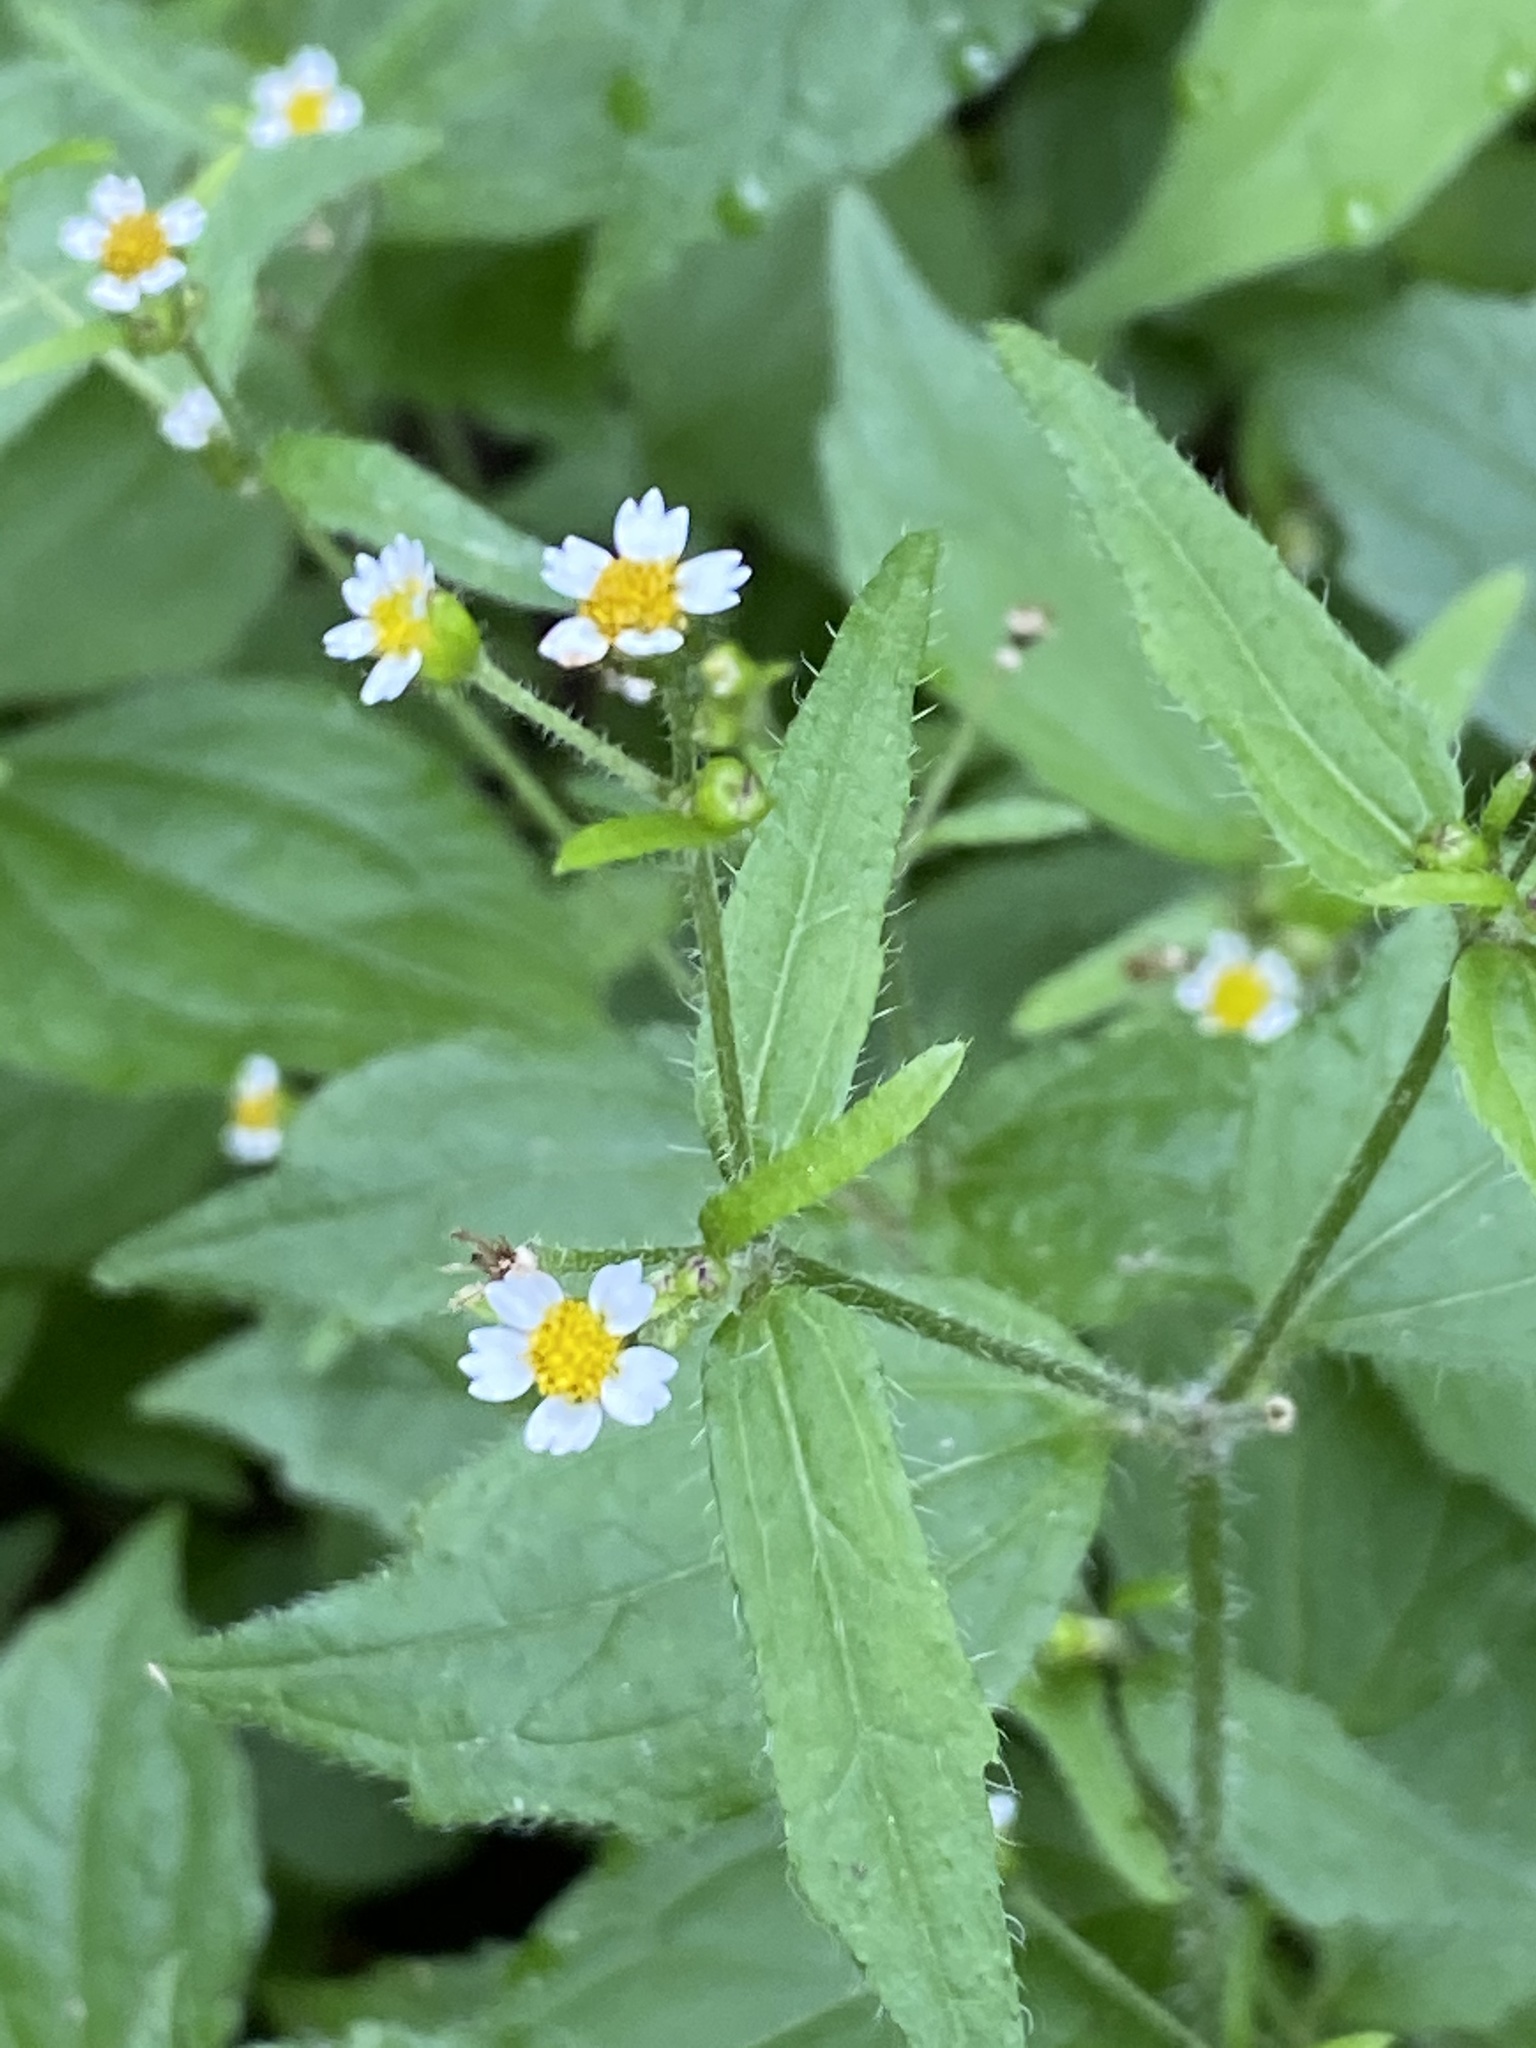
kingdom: Plantae
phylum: Tracheophyta
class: Magnoliopsida
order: Asterales
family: Asteraceae
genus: Galinsoga
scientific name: Galinsoga quadriradiata
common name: Shaggy soldier
